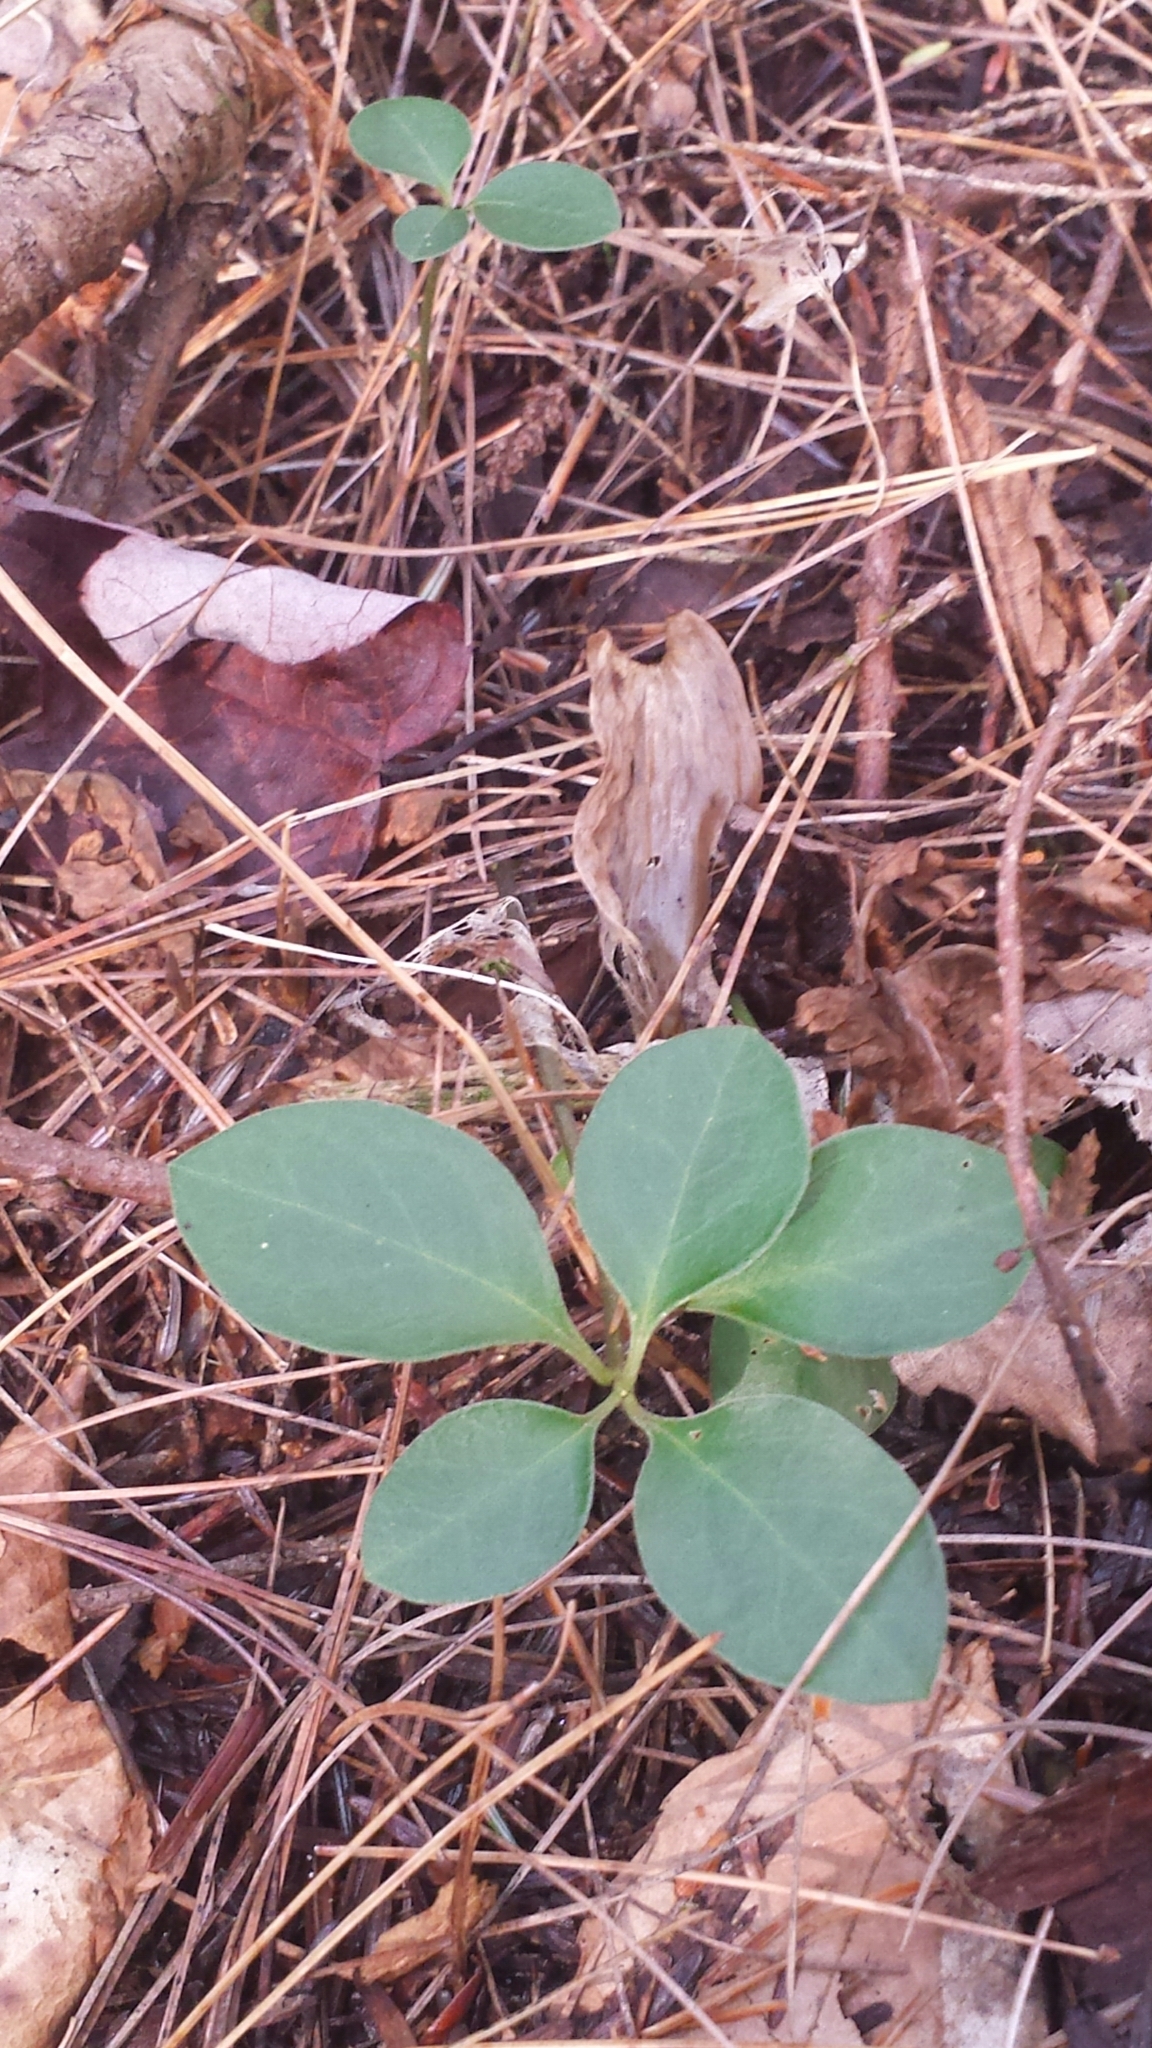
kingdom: Plantae
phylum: Tracheophyta
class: Magnoliopsida
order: Fabales
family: Polygalaceae
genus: Polygaloides
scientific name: Polygaloides paucifolia
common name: Bird-on-the-wing
